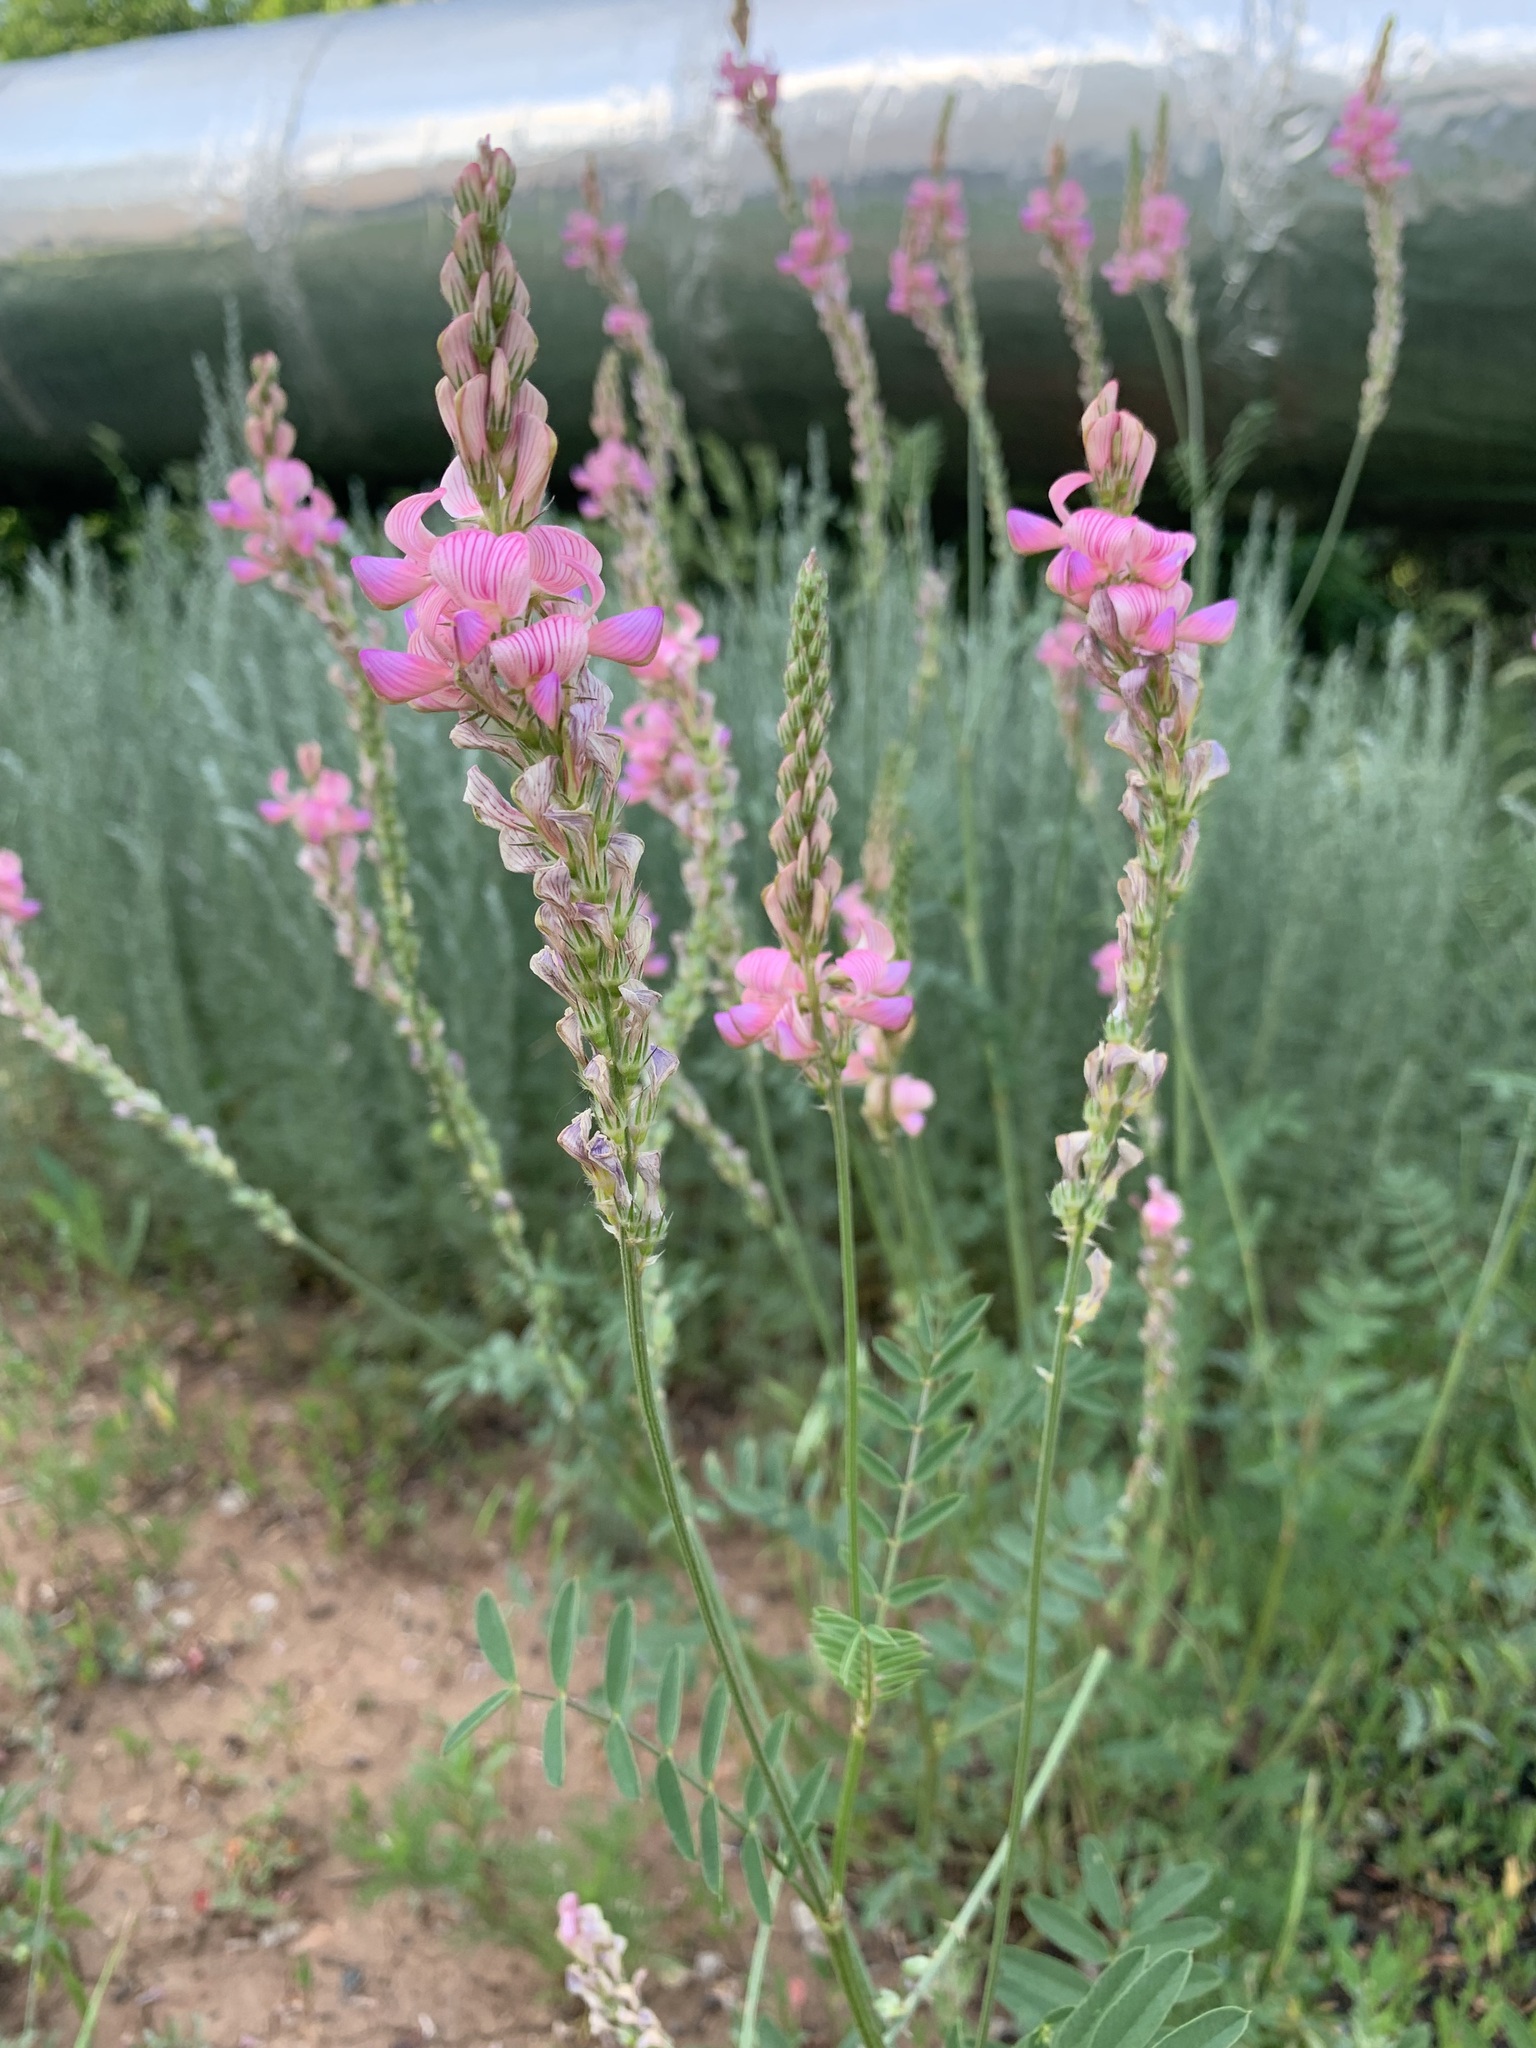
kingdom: Plantae
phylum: Tracheophyta
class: Magnoliopsida
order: Fabales
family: Fabaceae
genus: Onobrychis
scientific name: Onobrychis viciifolia
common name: Sainfoin
